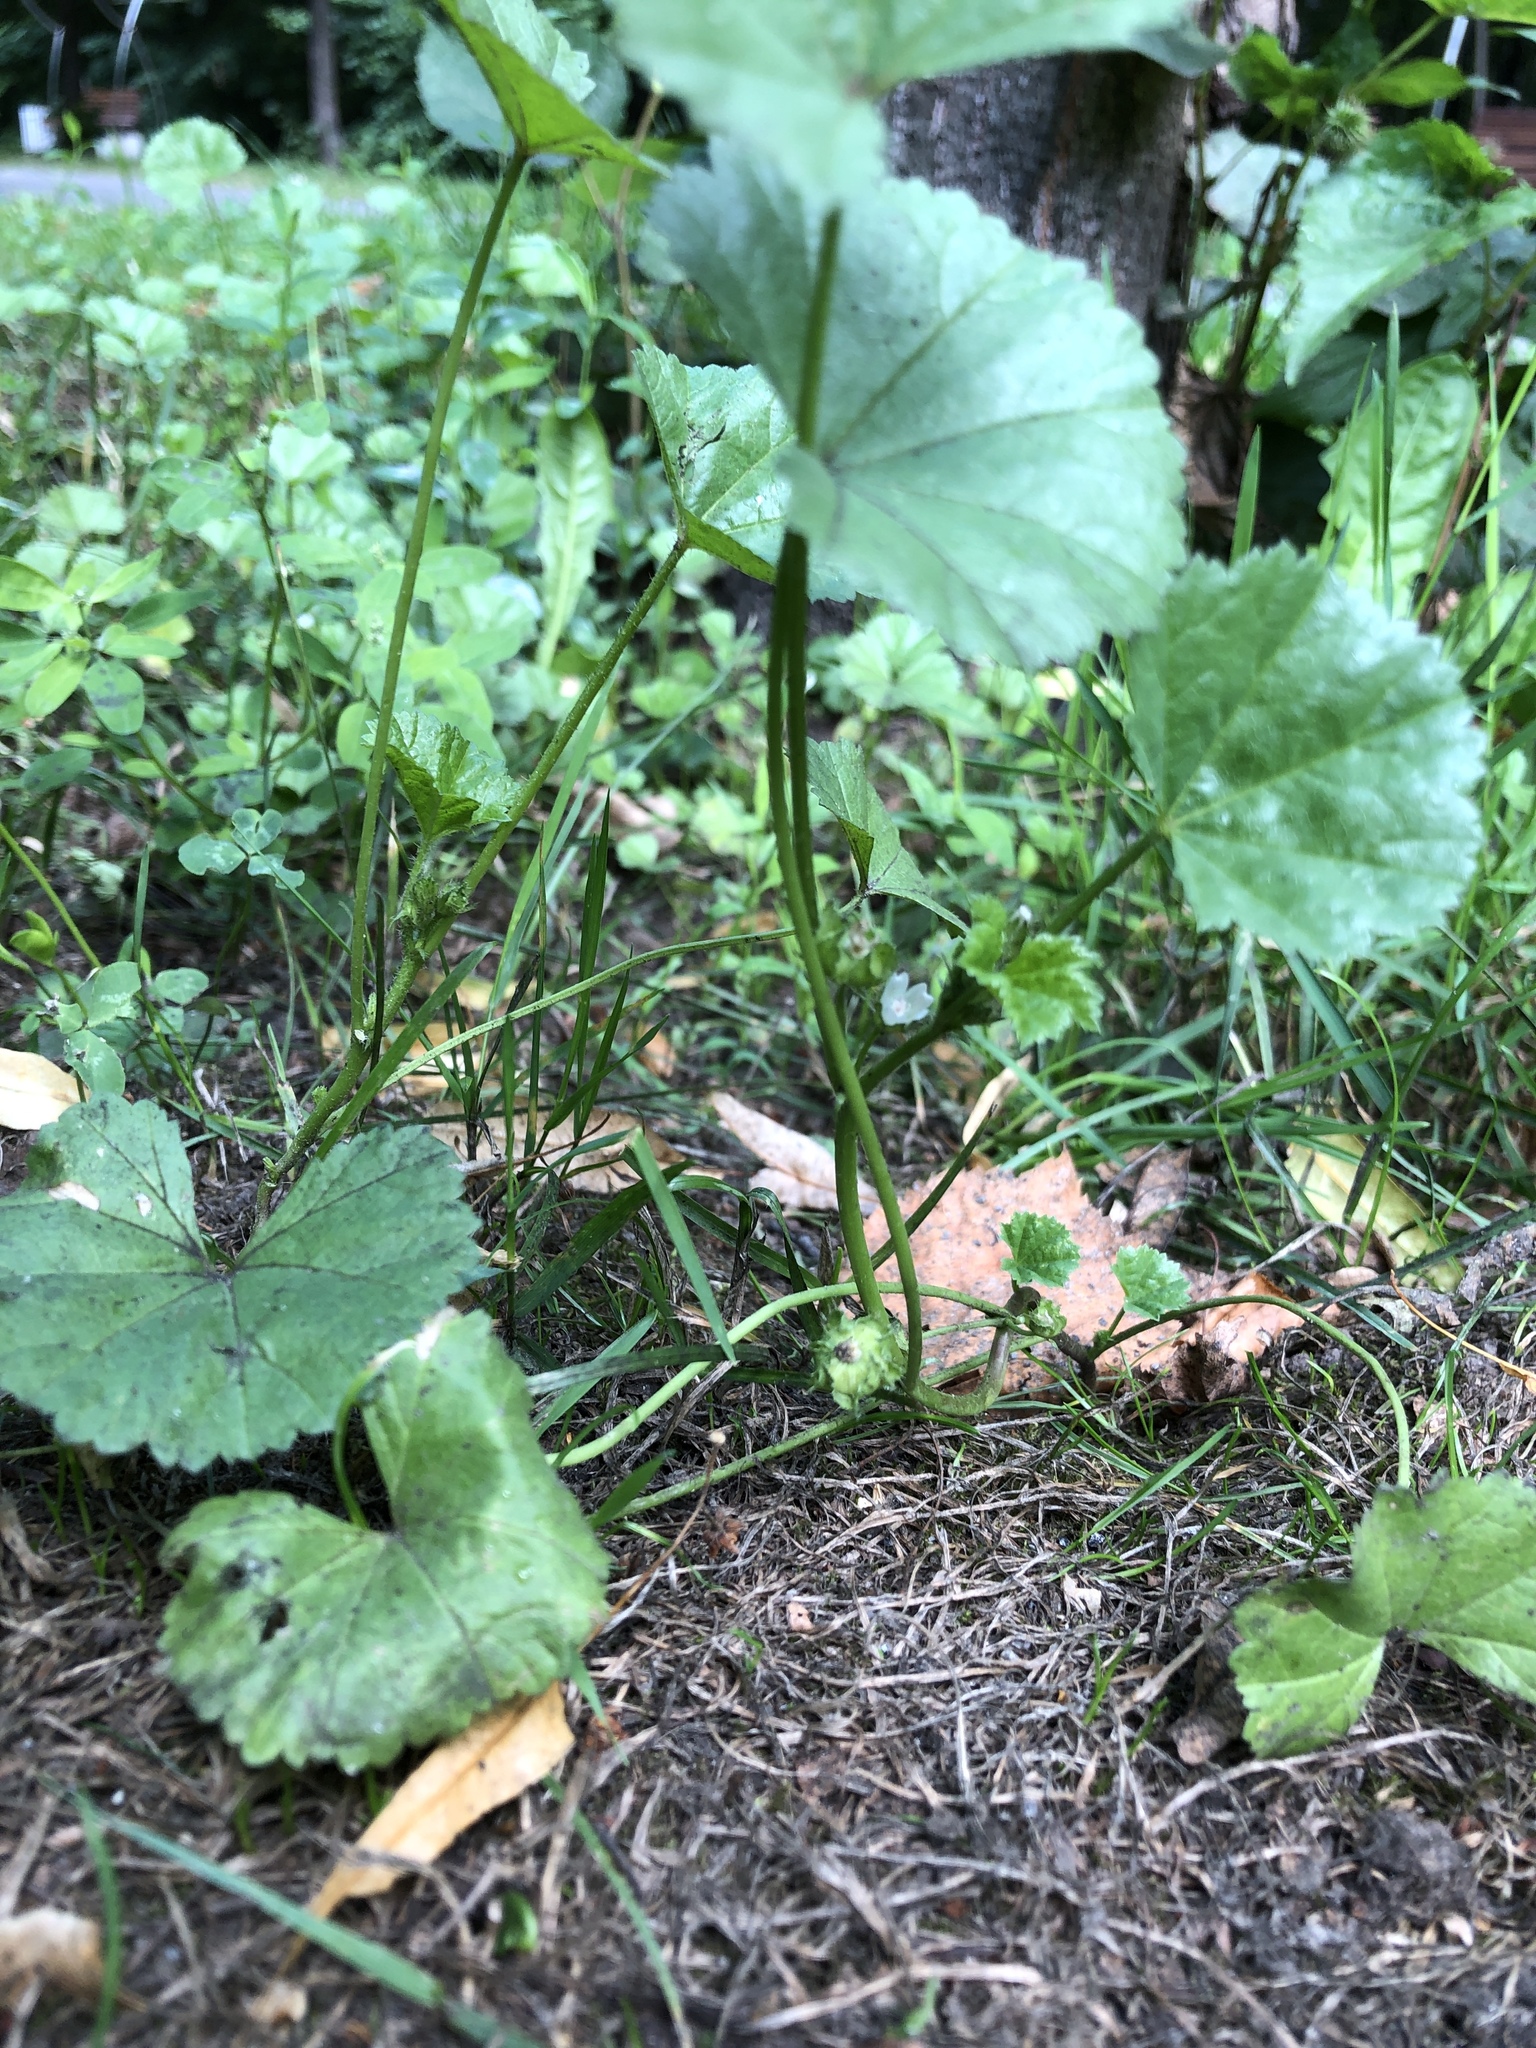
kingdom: Plantae
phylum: Tracheophyta
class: Magnoliopsida
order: Malvales
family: Malvaceae
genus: Malva
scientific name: Malva pusilla
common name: Small mallow
